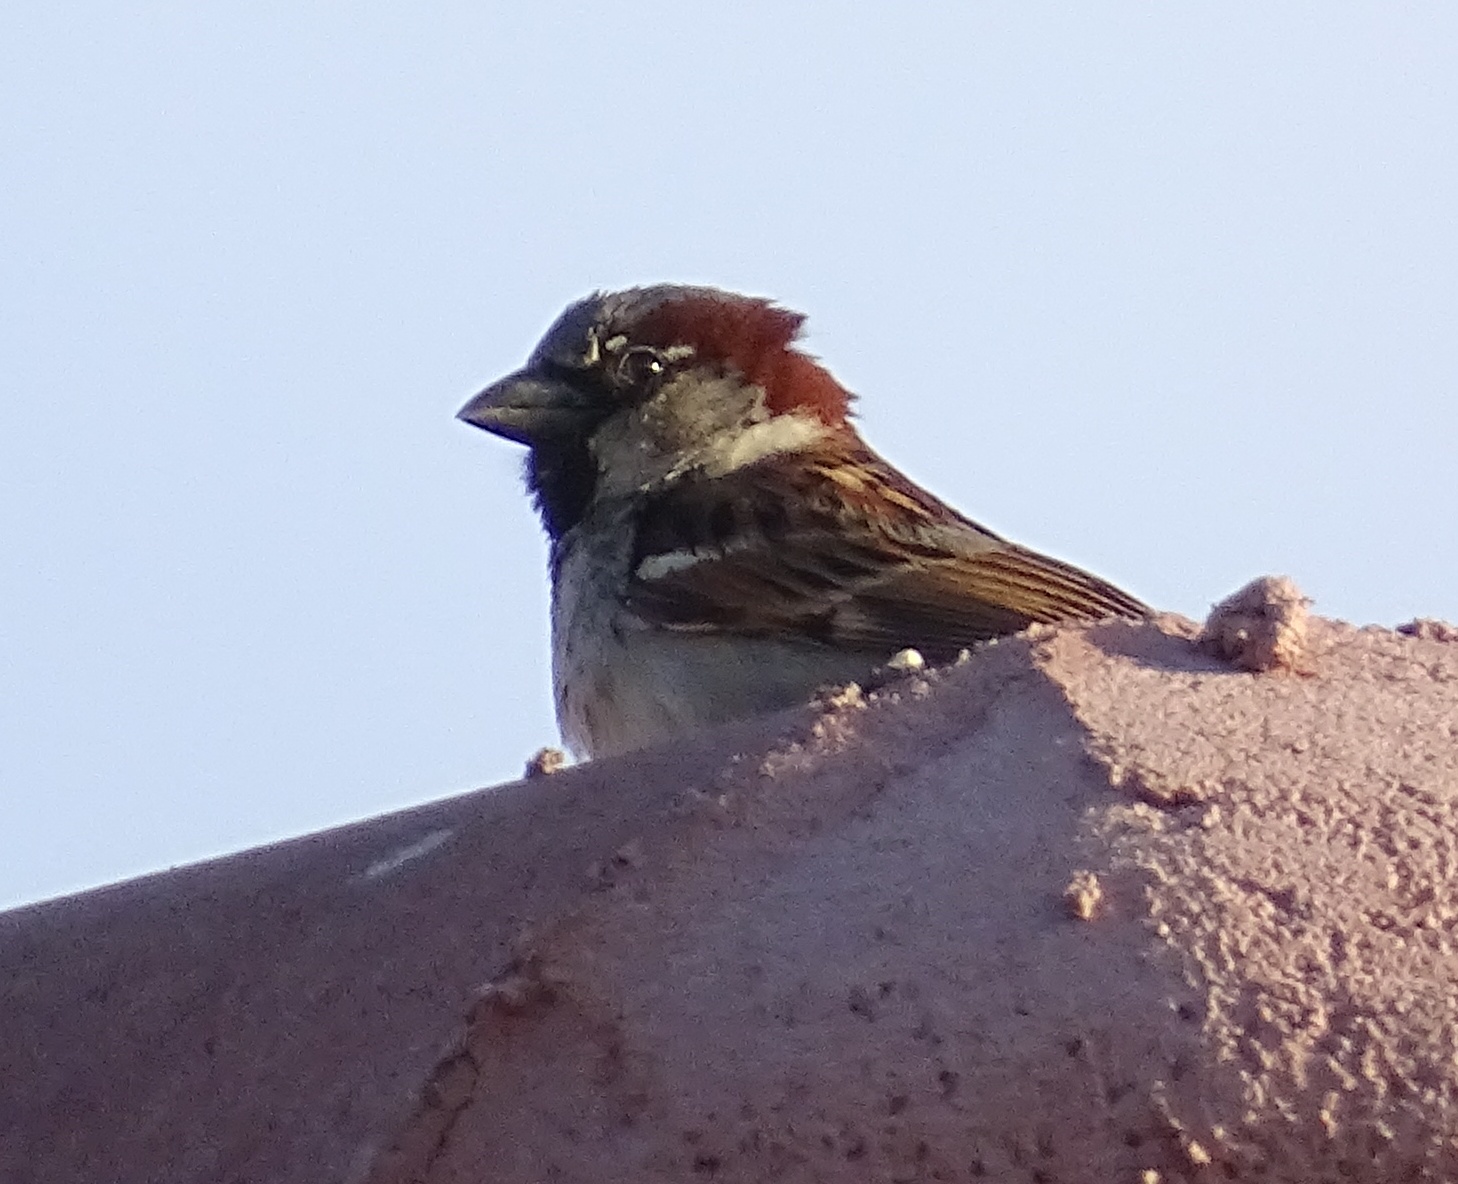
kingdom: Animalia
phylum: Chordata
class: Aves
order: Passeriformes
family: Passeridae
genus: Passer
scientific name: Passer domesticus
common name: House sparrow
